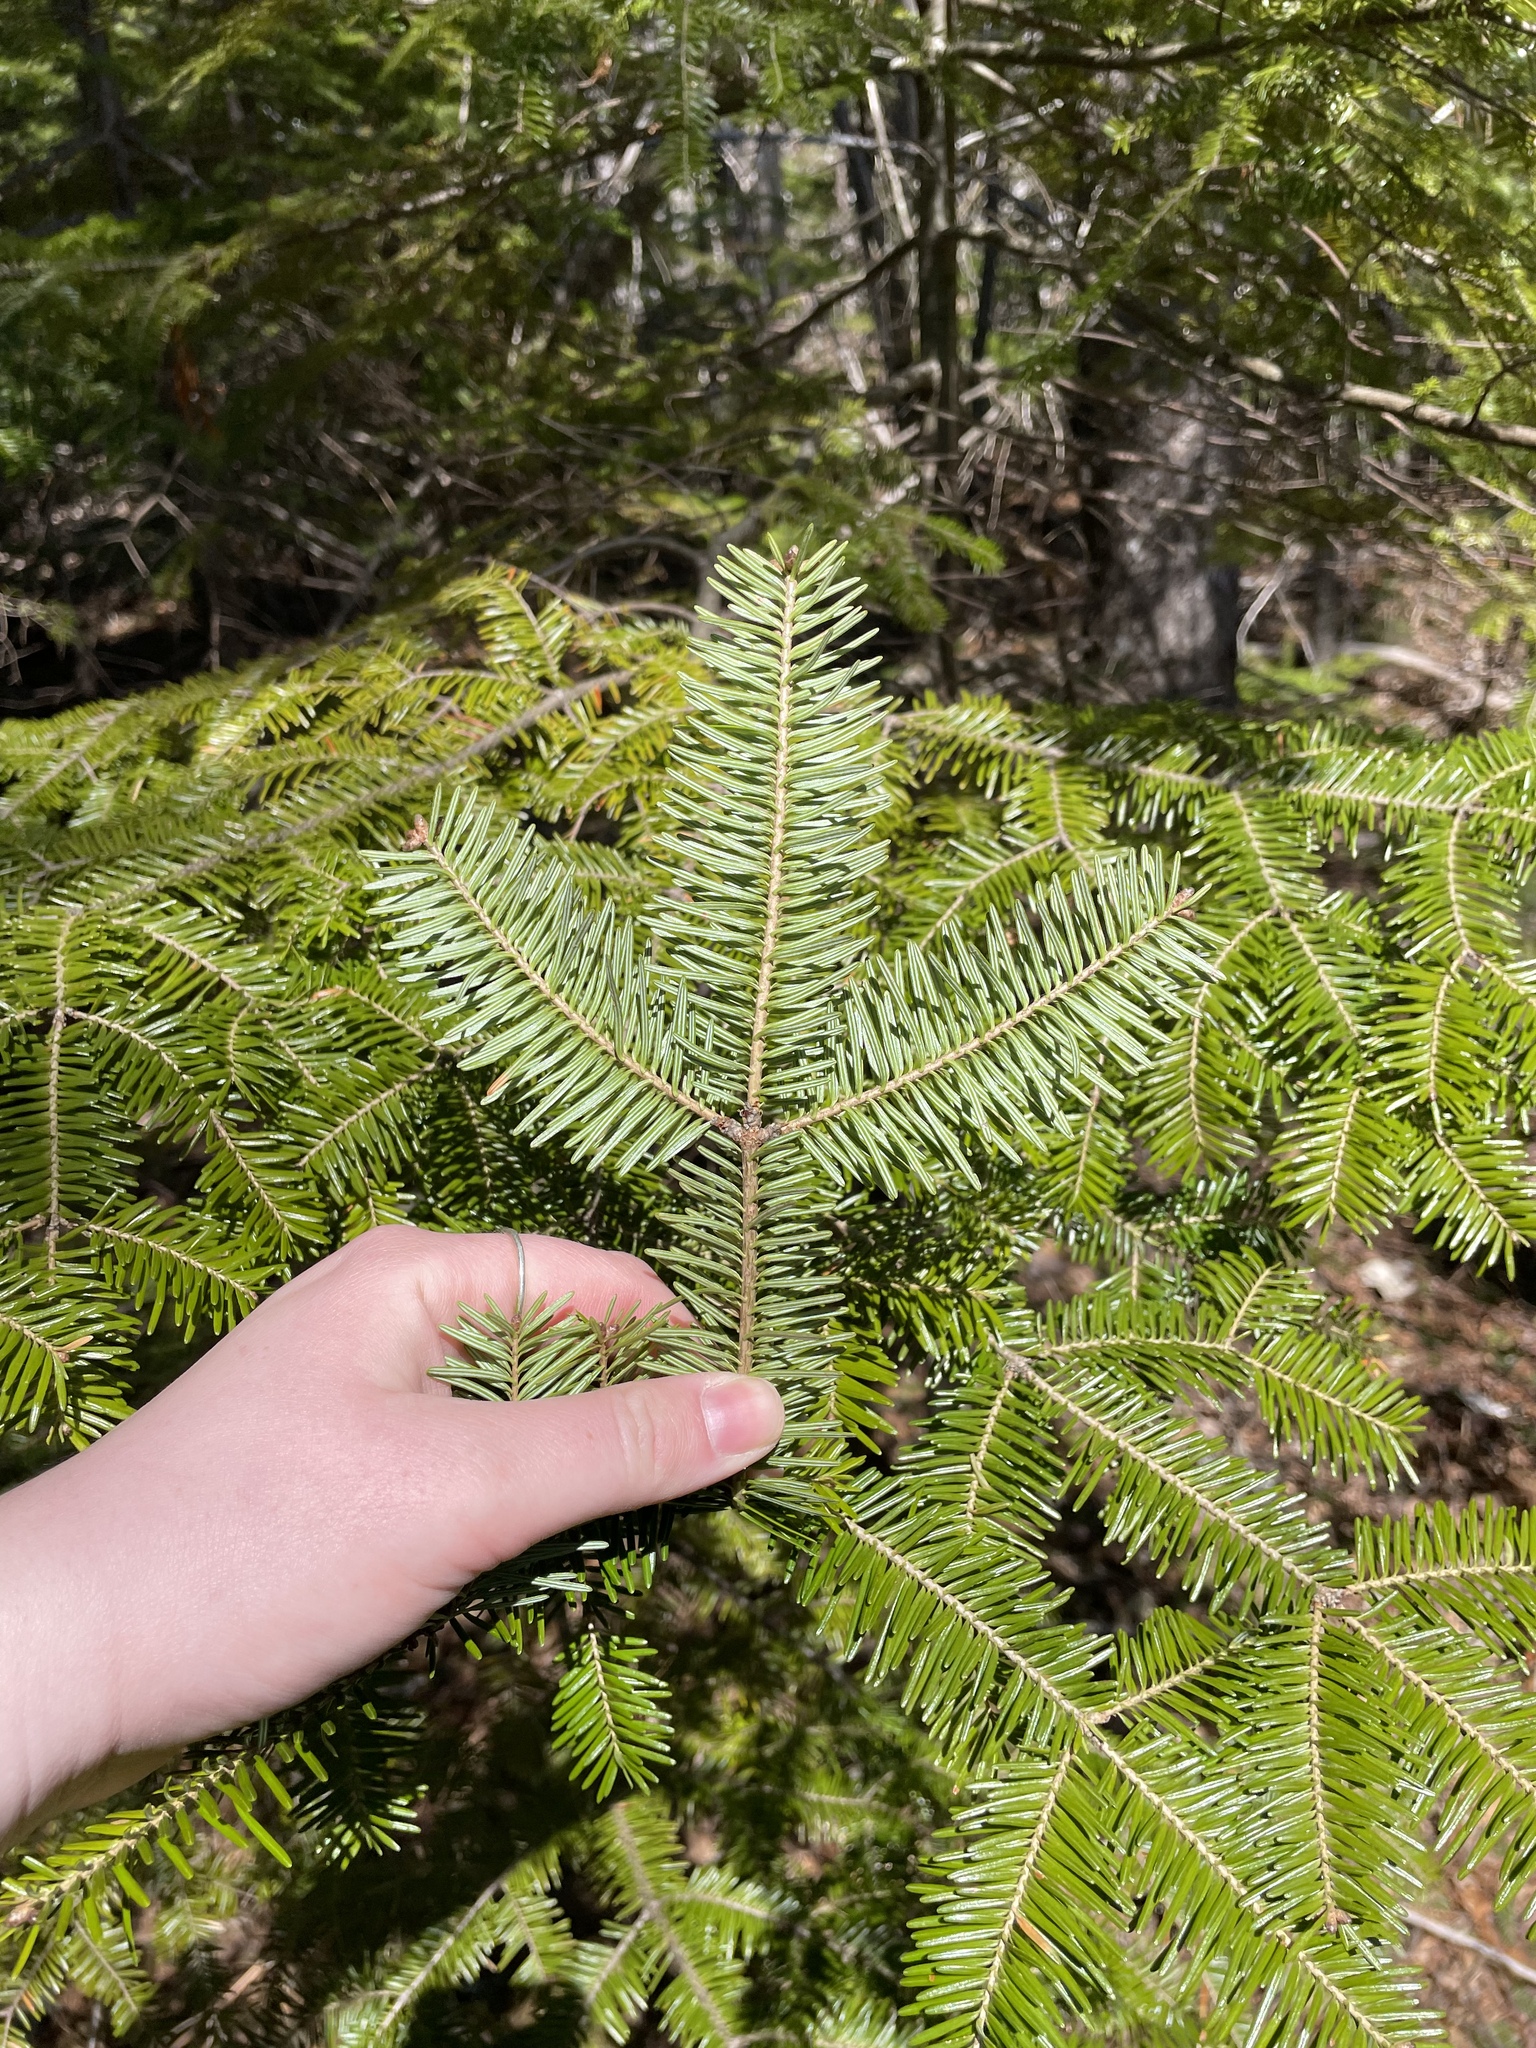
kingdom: Plantae
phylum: Tracheophyta
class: Pinopsida
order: Pinales
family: Pinaceae
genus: Abies
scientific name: Abies balsamea
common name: Balsam fir
